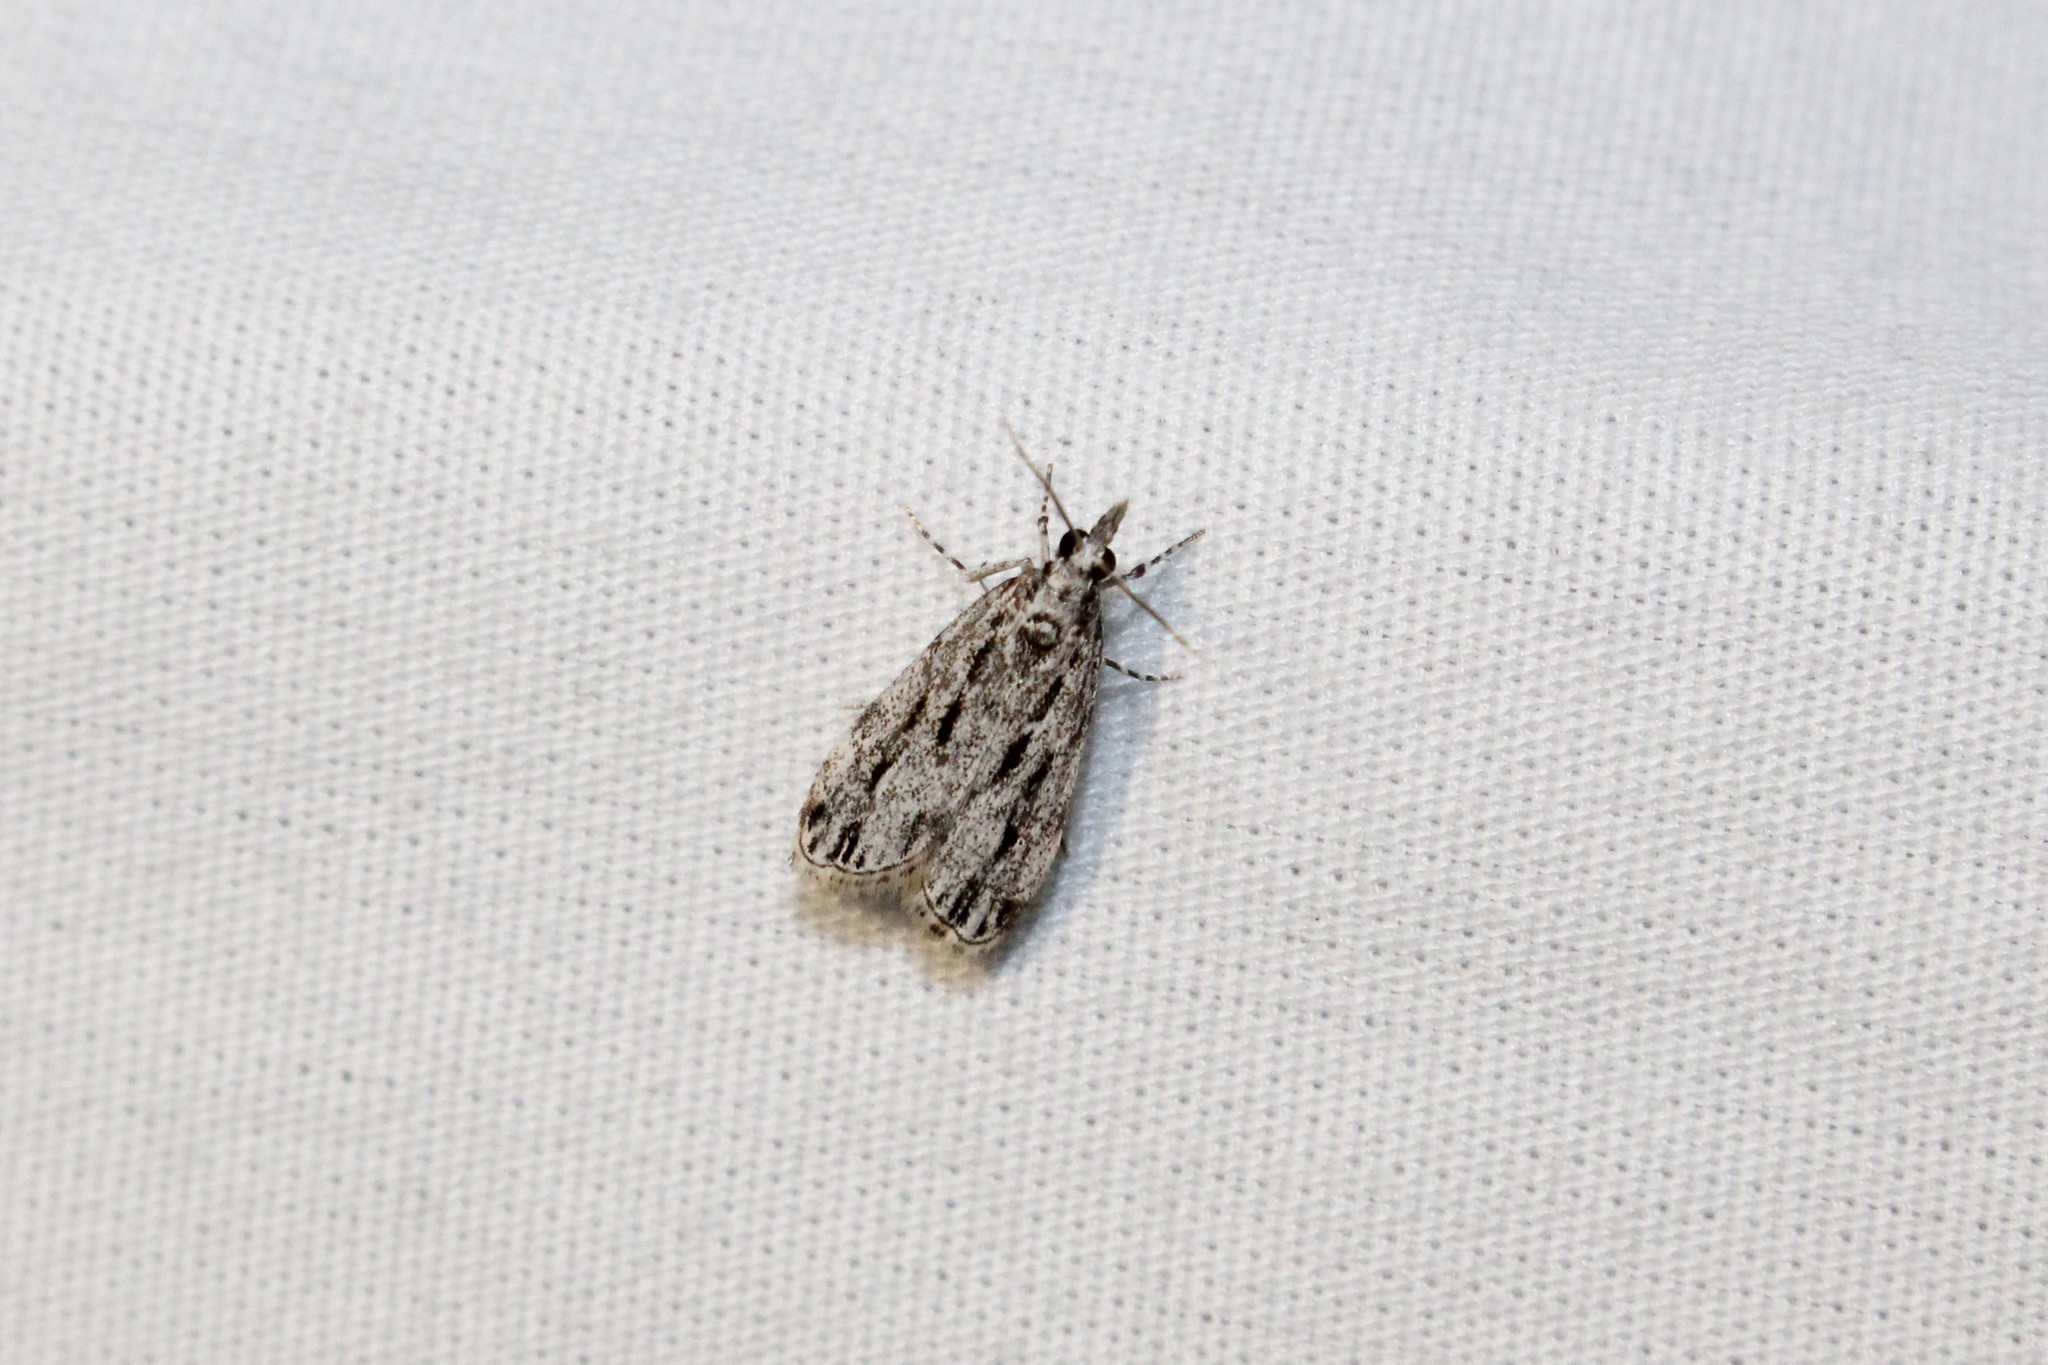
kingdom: Animalia
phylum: Arthropoda
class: Insecta
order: Lepidoptera
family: Crambidae
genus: Eudonia
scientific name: Eudonia strigalis
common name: Striped eudonia moth
